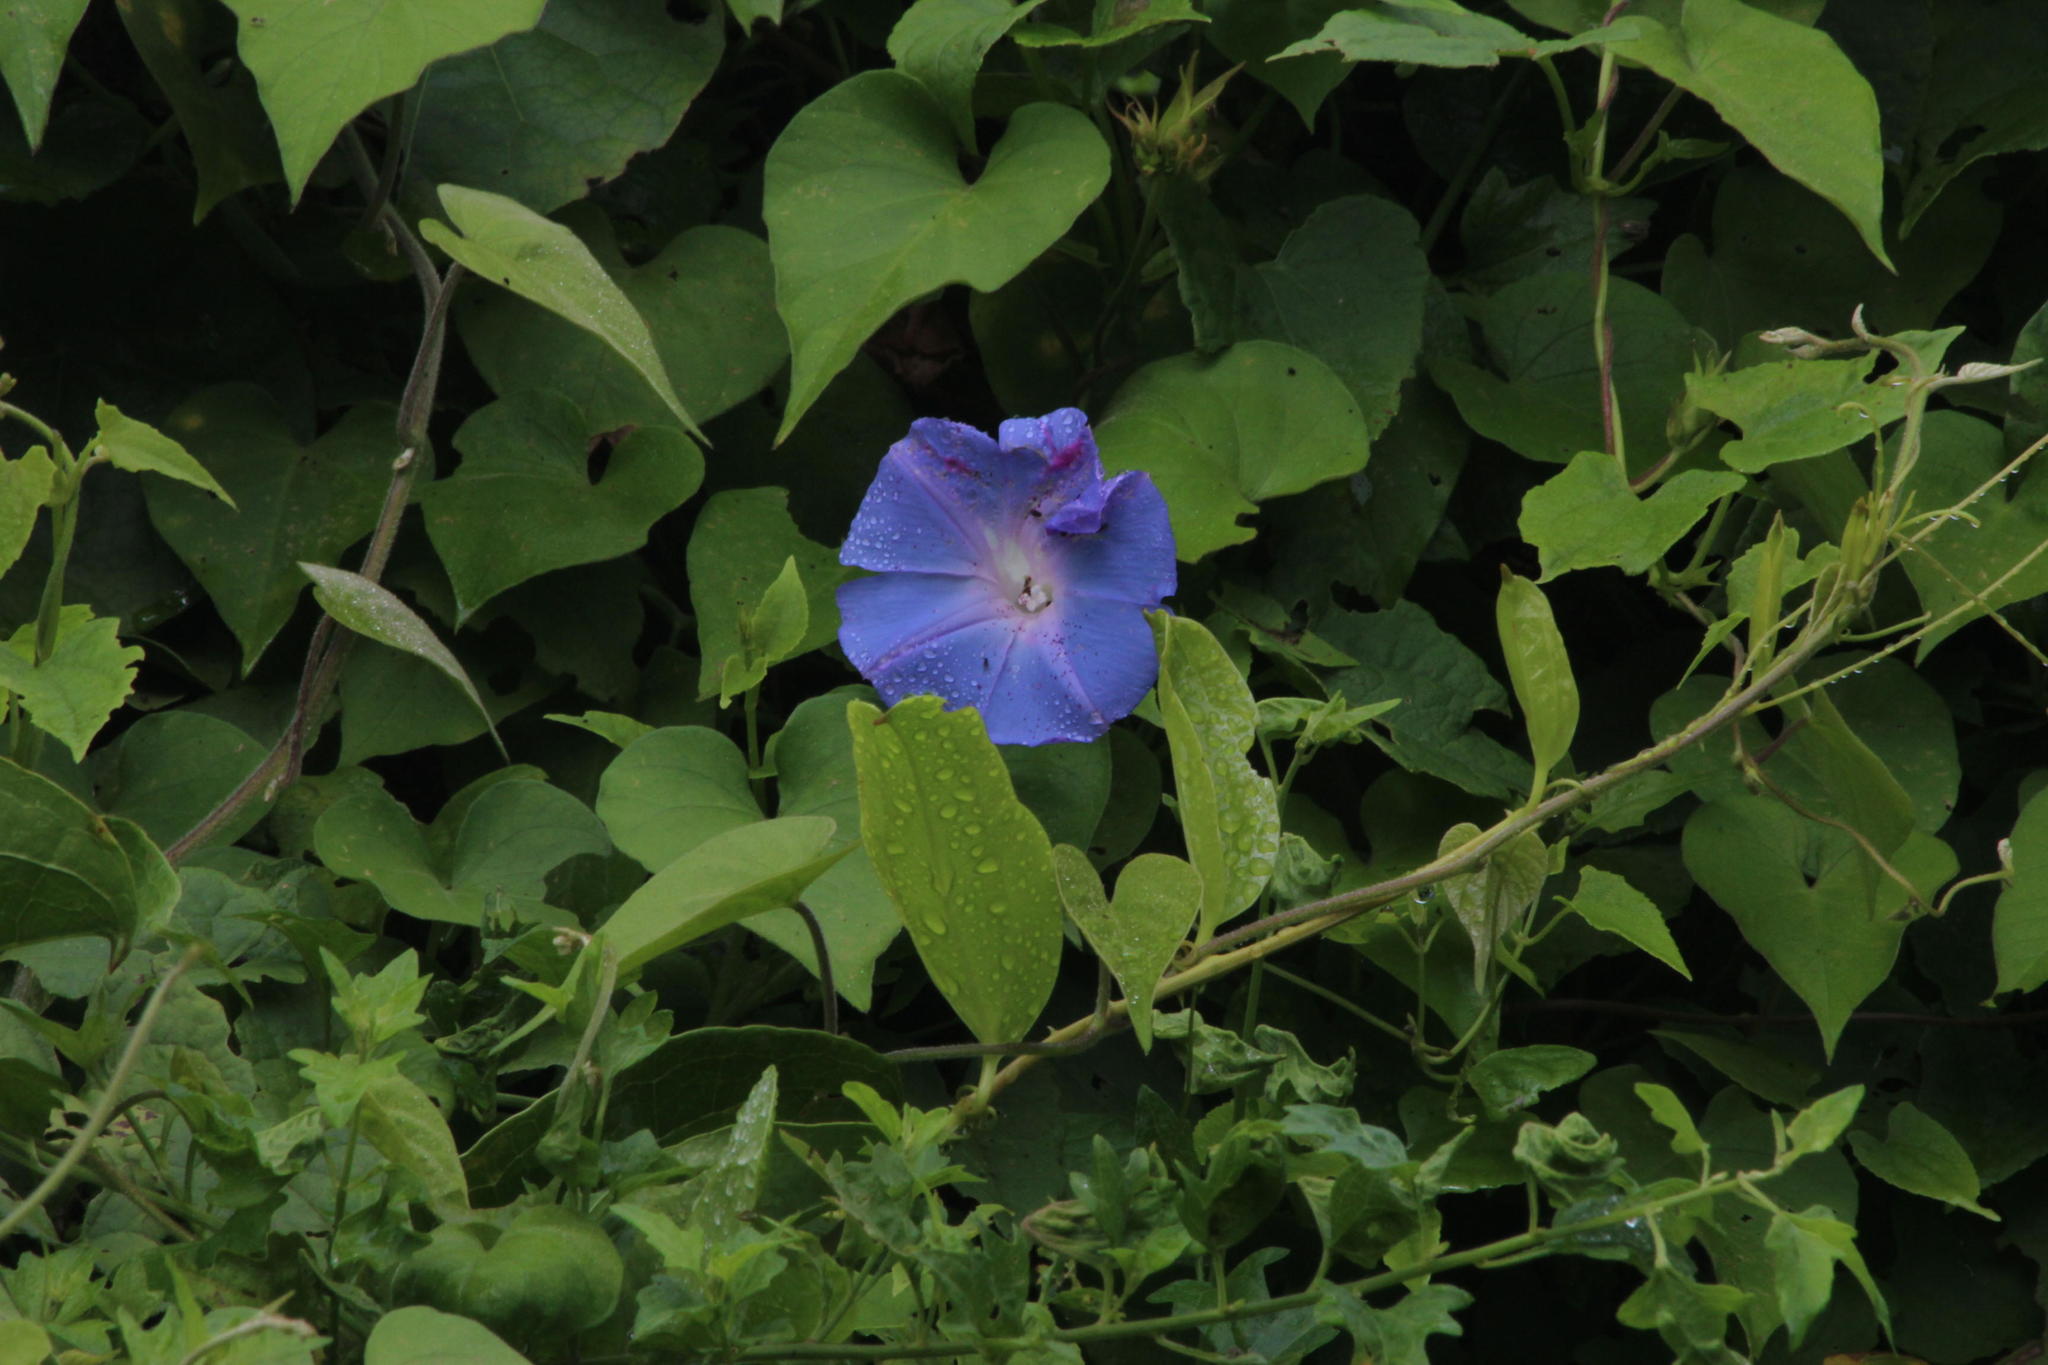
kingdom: Plantae
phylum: Tracheophyta
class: Magnoliopsida
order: Solanales
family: Convolvulaceae
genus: Ipomoea
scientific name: Ipomoea indica
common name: Blue dawnflower
